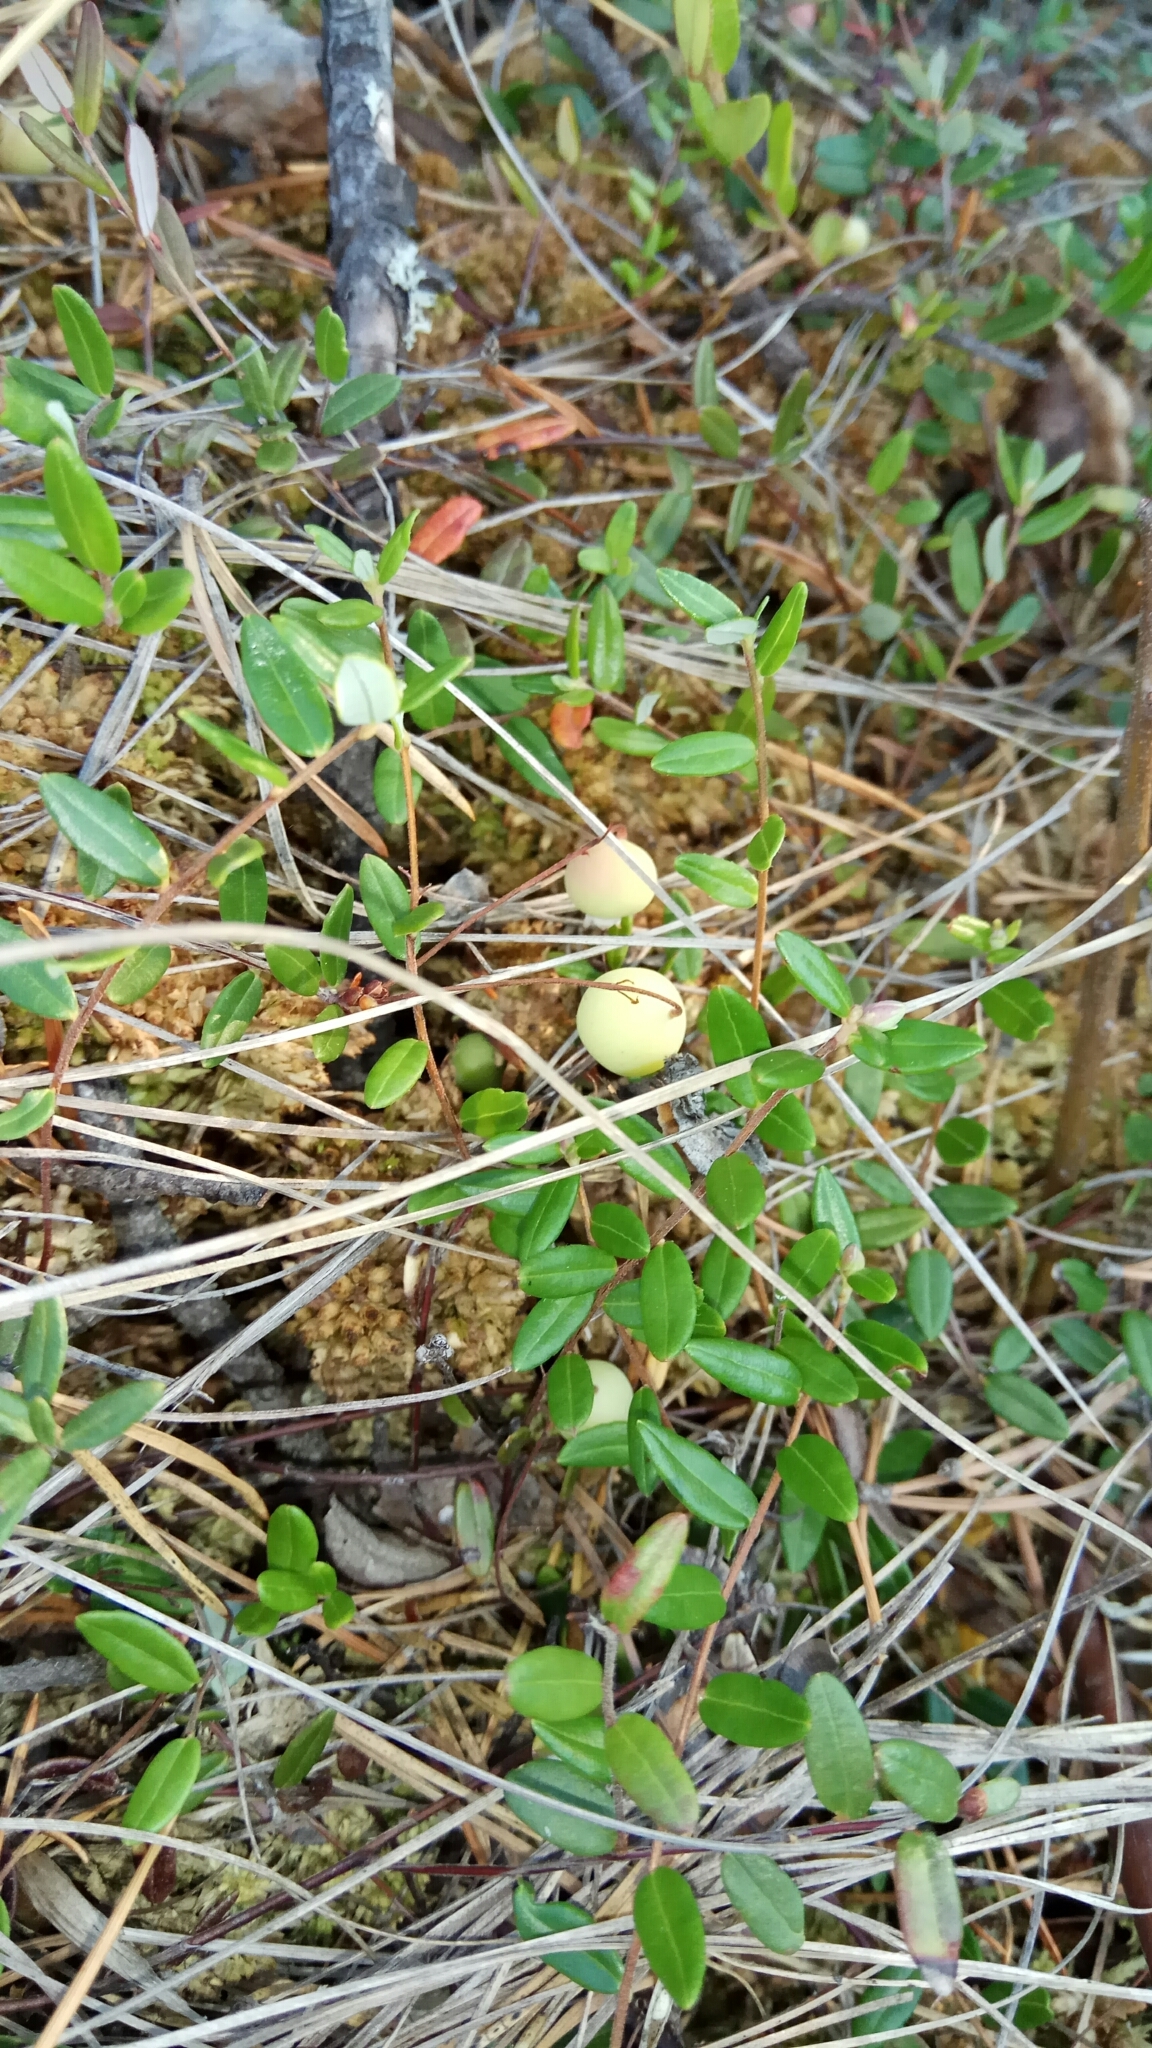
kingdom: Plantae
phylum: Tracheophyta
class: Magnoliopsida
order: Ericales
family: Ericaceae
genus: Vaccinium
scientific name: Vaccinium oxycoccos
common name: Cranberry
